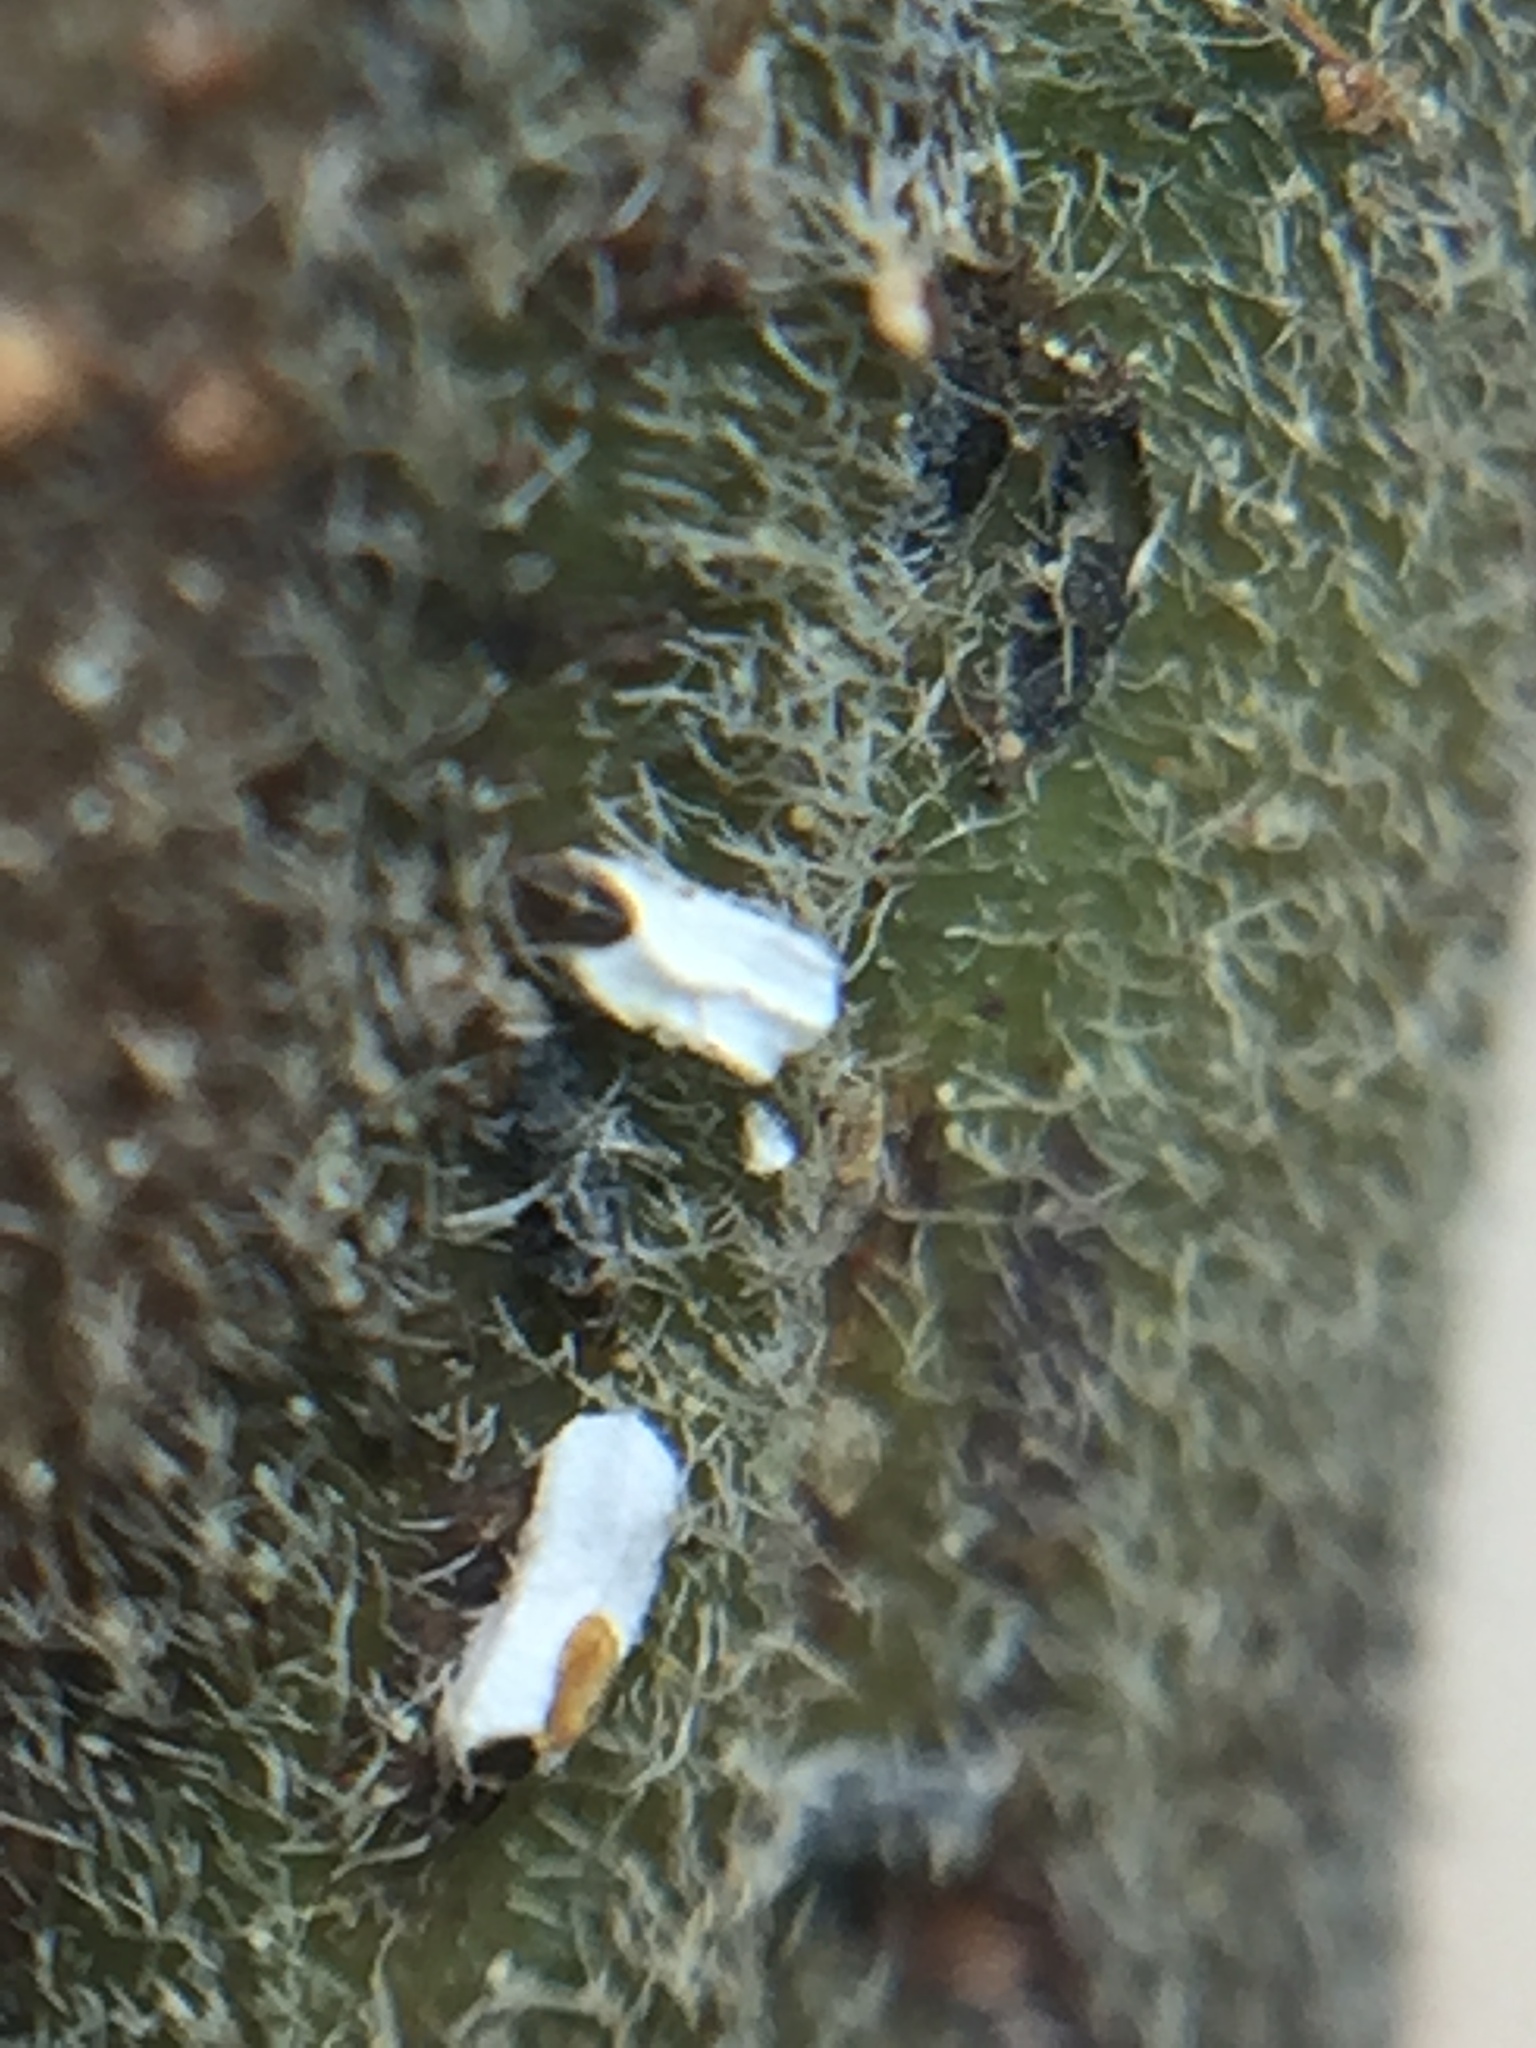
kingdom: Animalia
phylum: Arthropoda
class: Insecta
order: Hemiptera
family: Diaspididae
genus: Trullifiorinia
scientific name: Trullifiorinia acaciae
